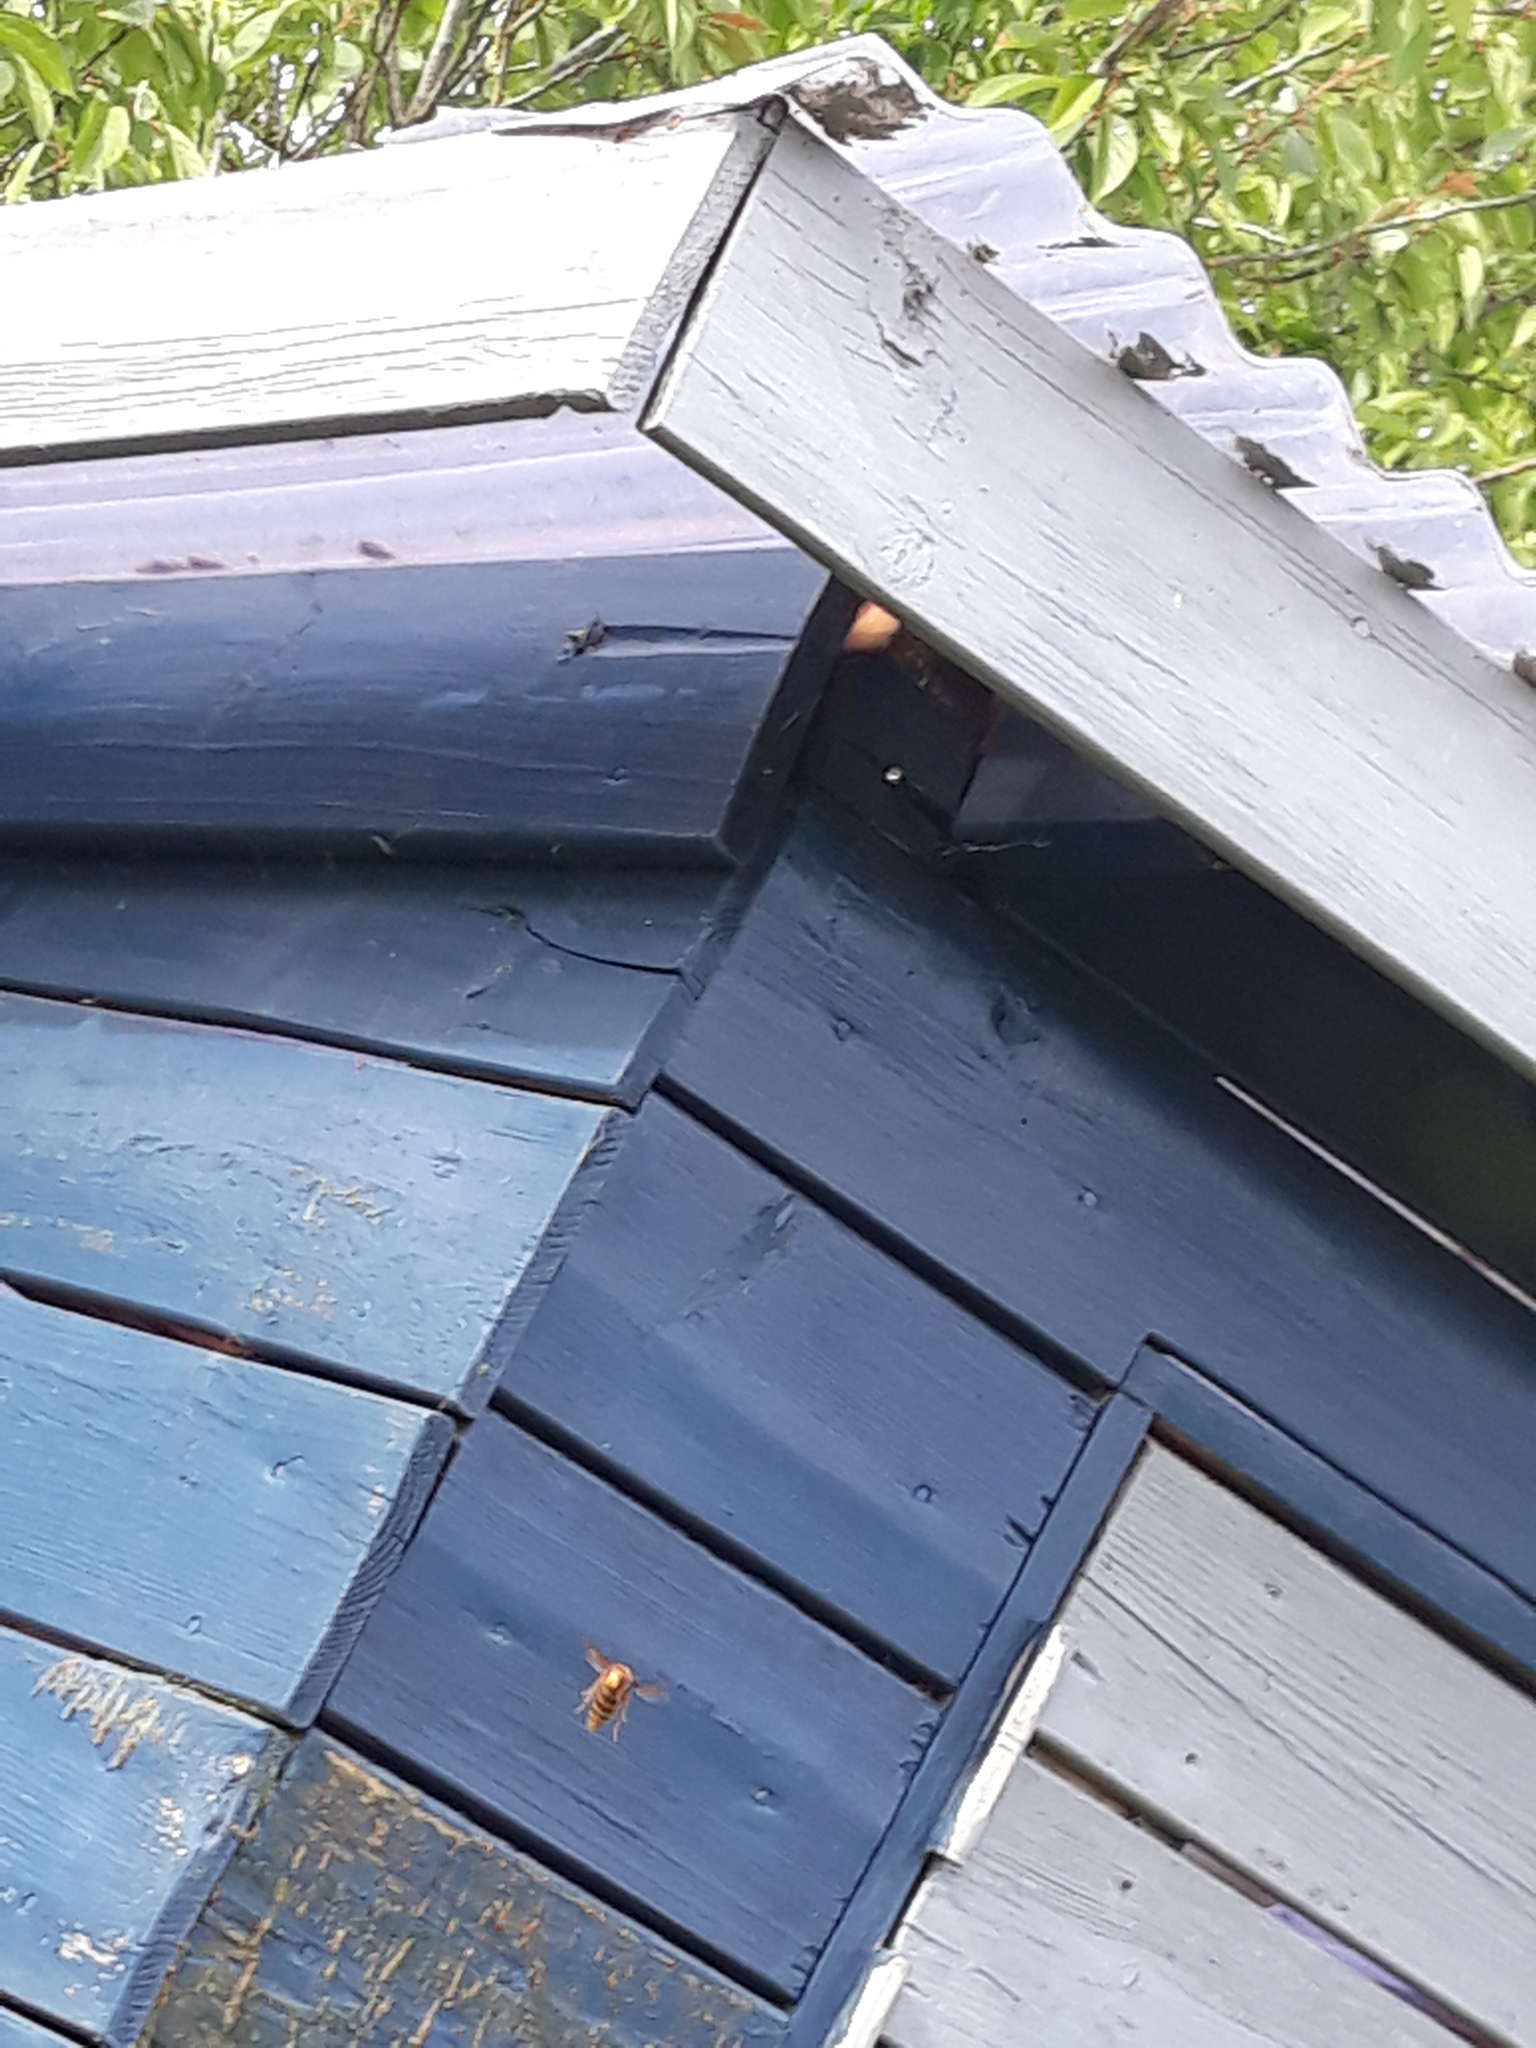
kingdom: Animalia
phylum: Arthropoda
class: Insecta
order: Hymenoptera
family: Vespidae
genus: Vespa
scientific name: Vespa crabro
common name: Hornet
